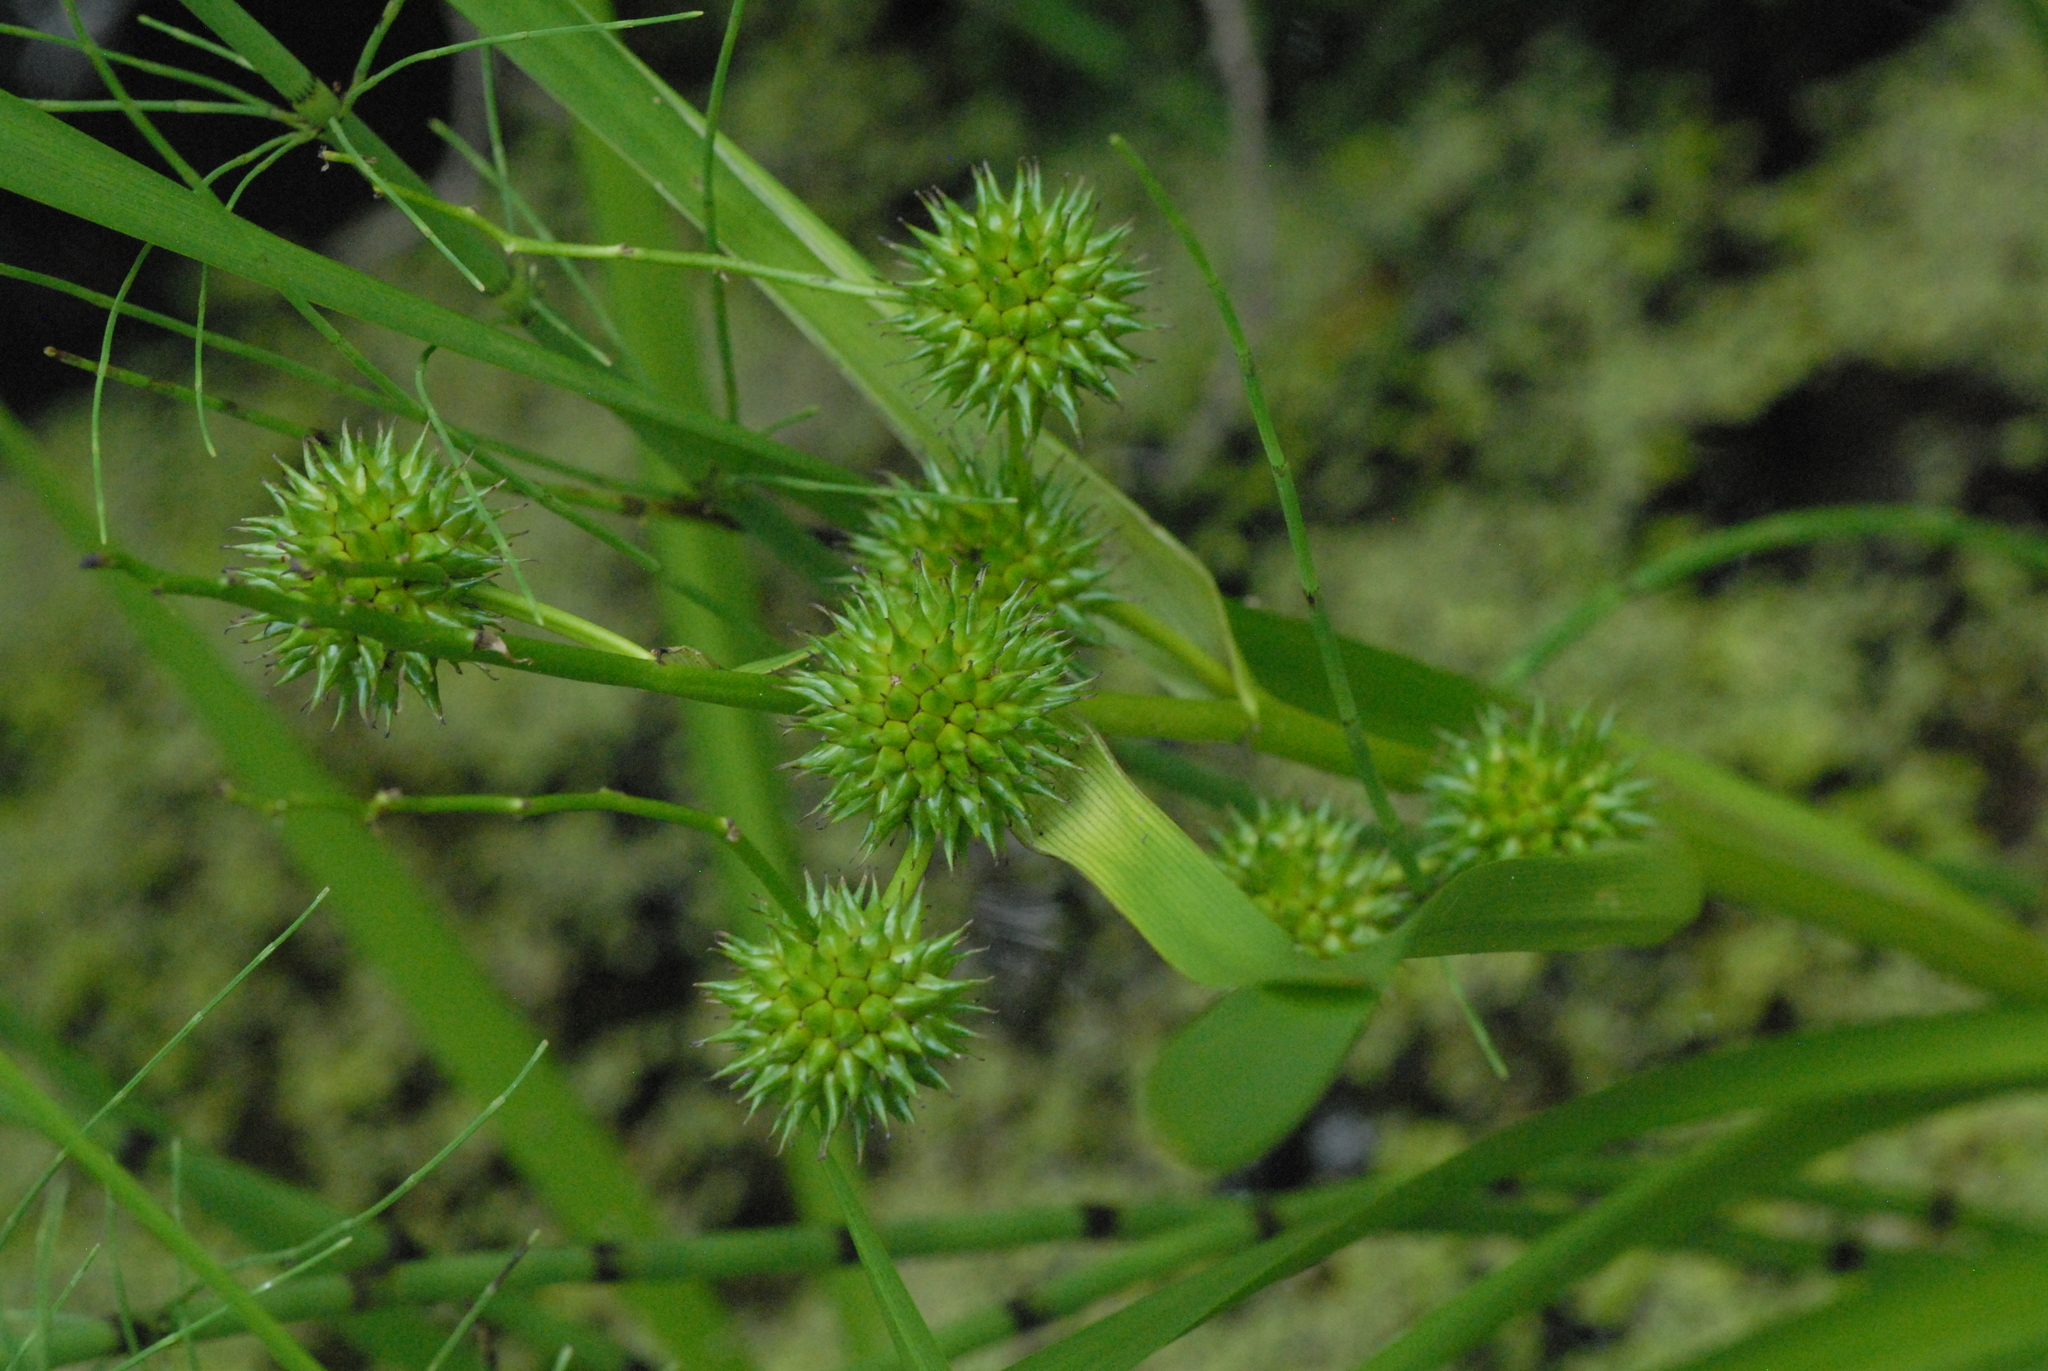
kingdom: Plantae
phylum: Tracheophyta
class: Liliopsida
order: Poales
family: Typhaceae
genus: Sparganium
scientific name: Sparganium erectum
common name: Branched bur-reed
